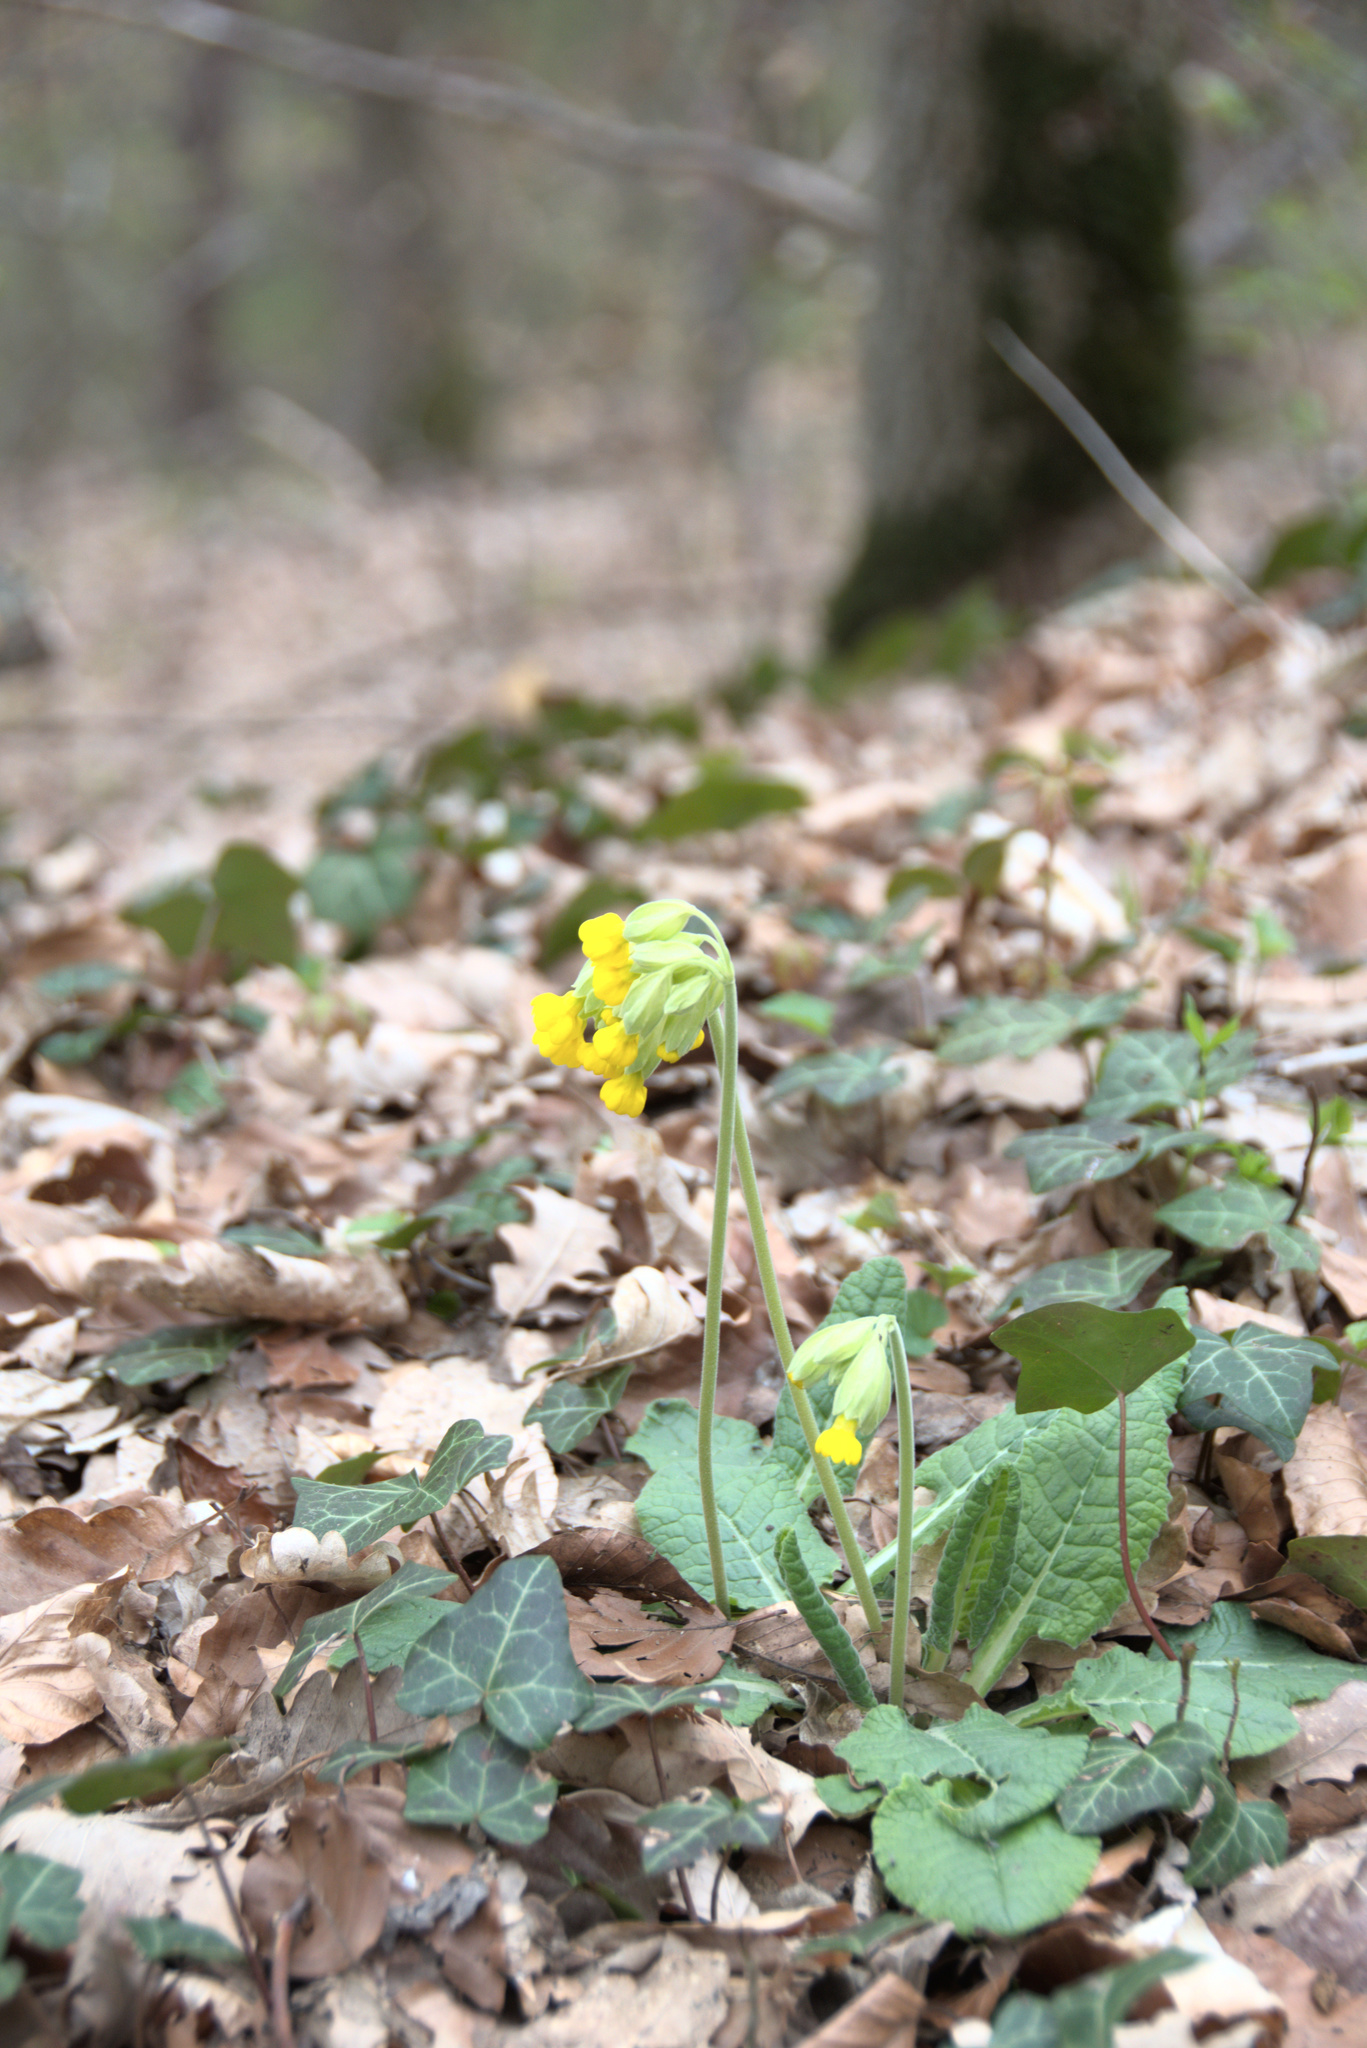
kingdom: Plantae
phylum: Tracheophyta
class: Magnoliopsida
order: Ericales
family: Primulaceae
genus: Primula
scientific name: Primula veris
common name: Cowslip
